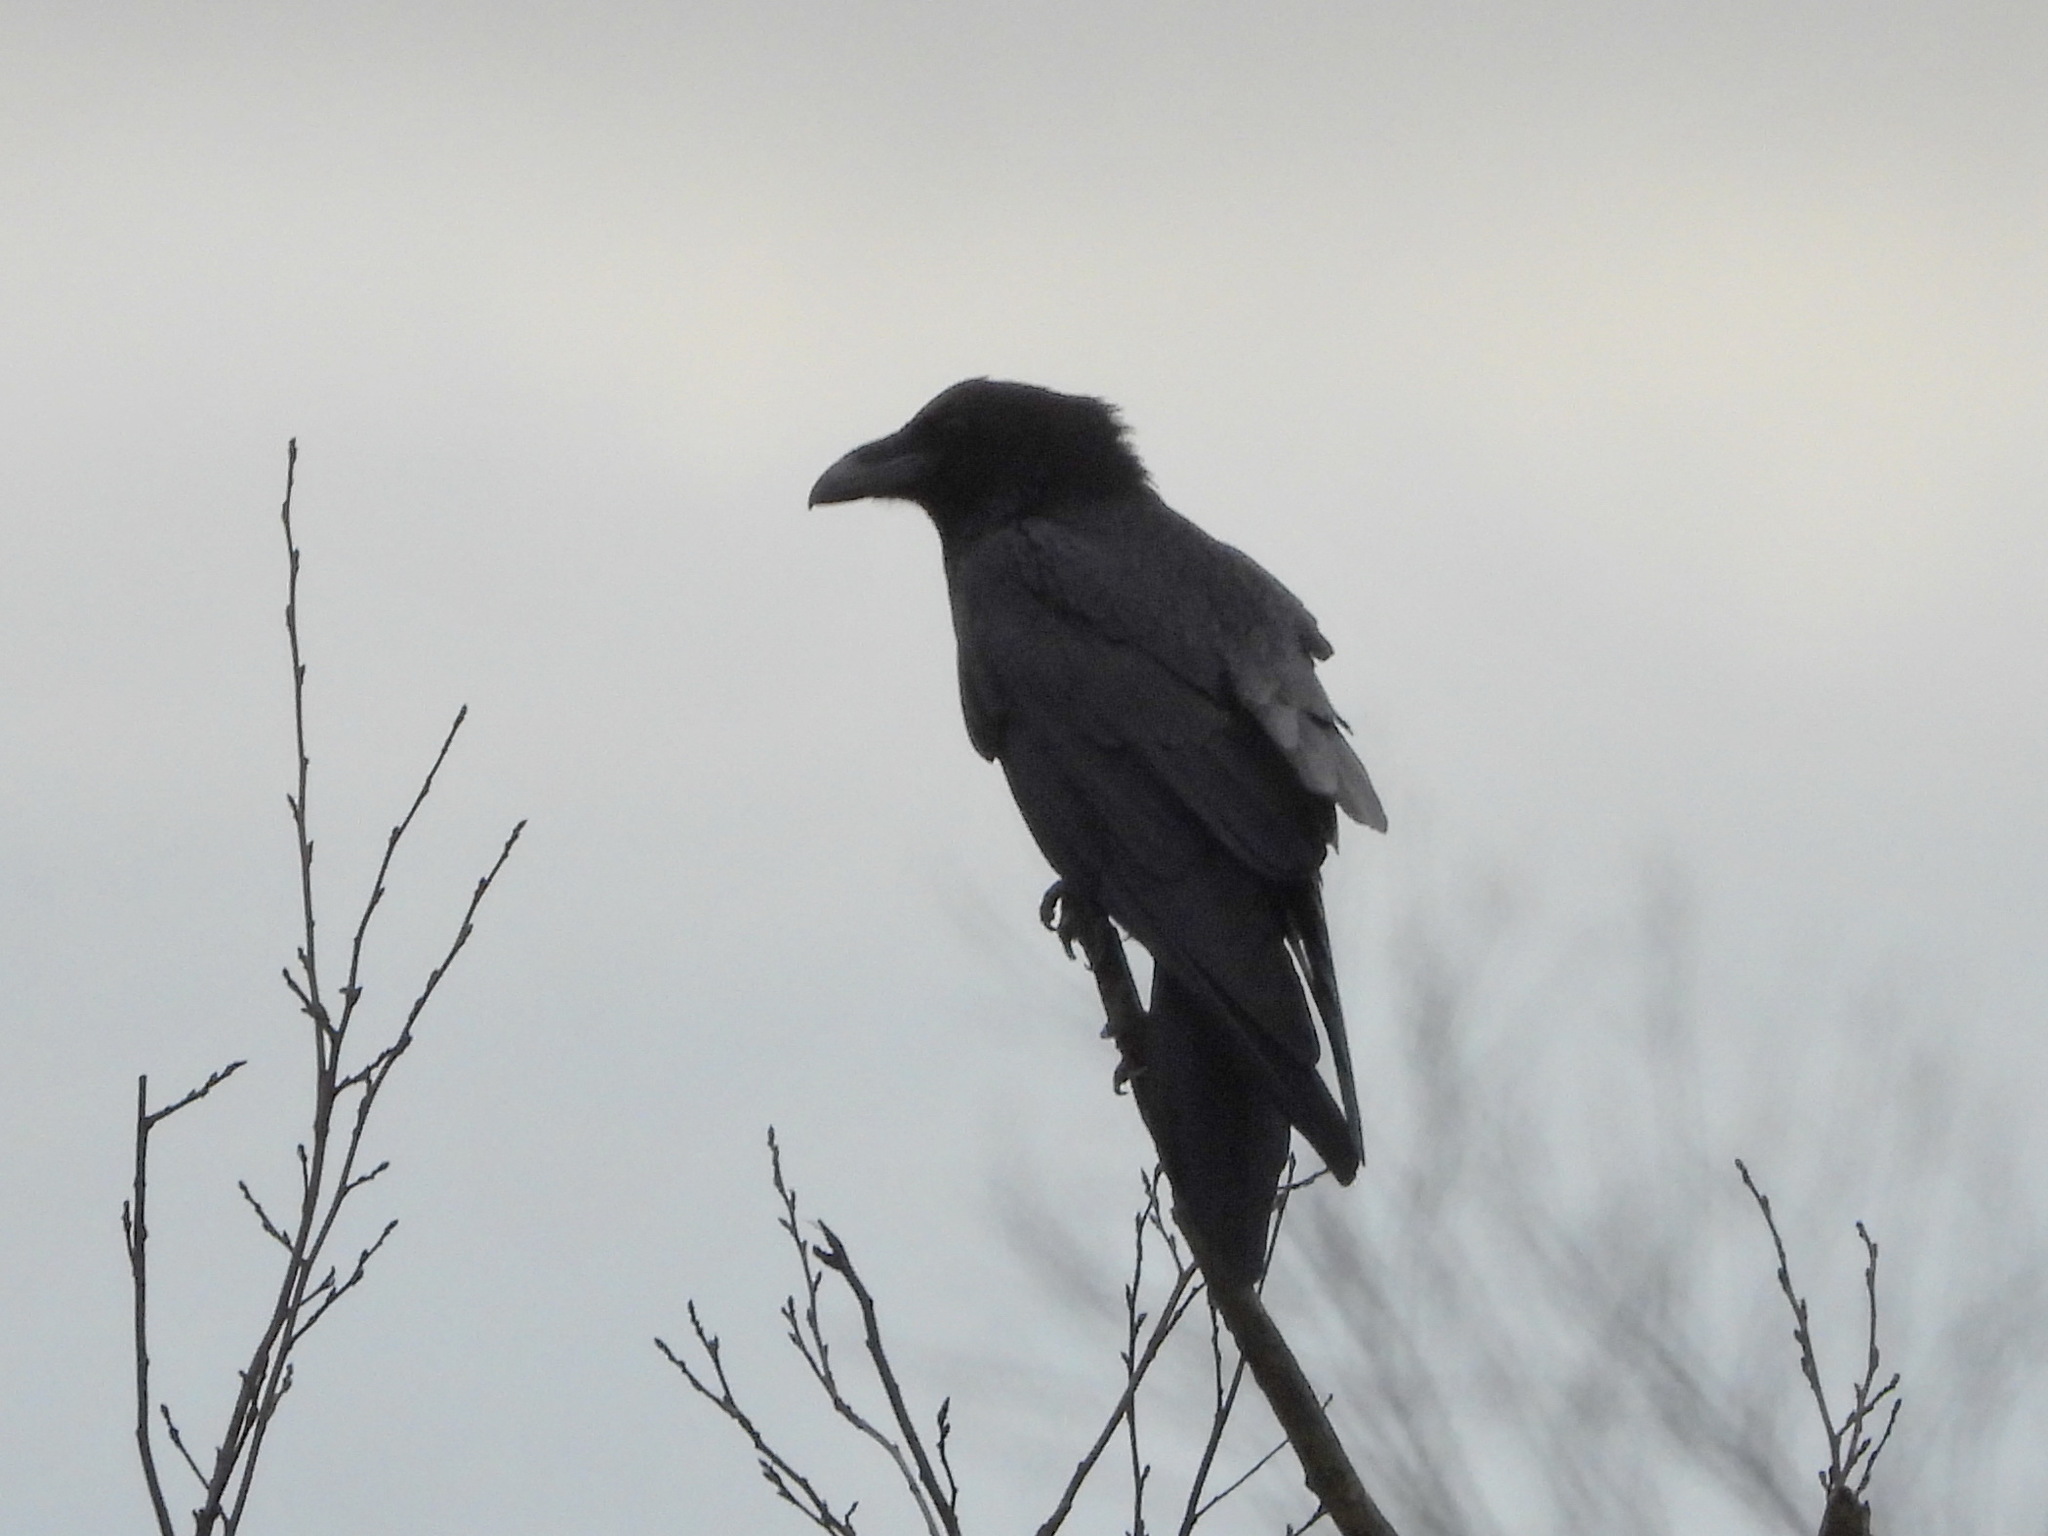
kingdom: Animalia
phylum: Chordata
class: Aves
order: Passeriformes
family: Corvidae
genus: Corvus
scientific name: Corvus corax
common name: Common raven
